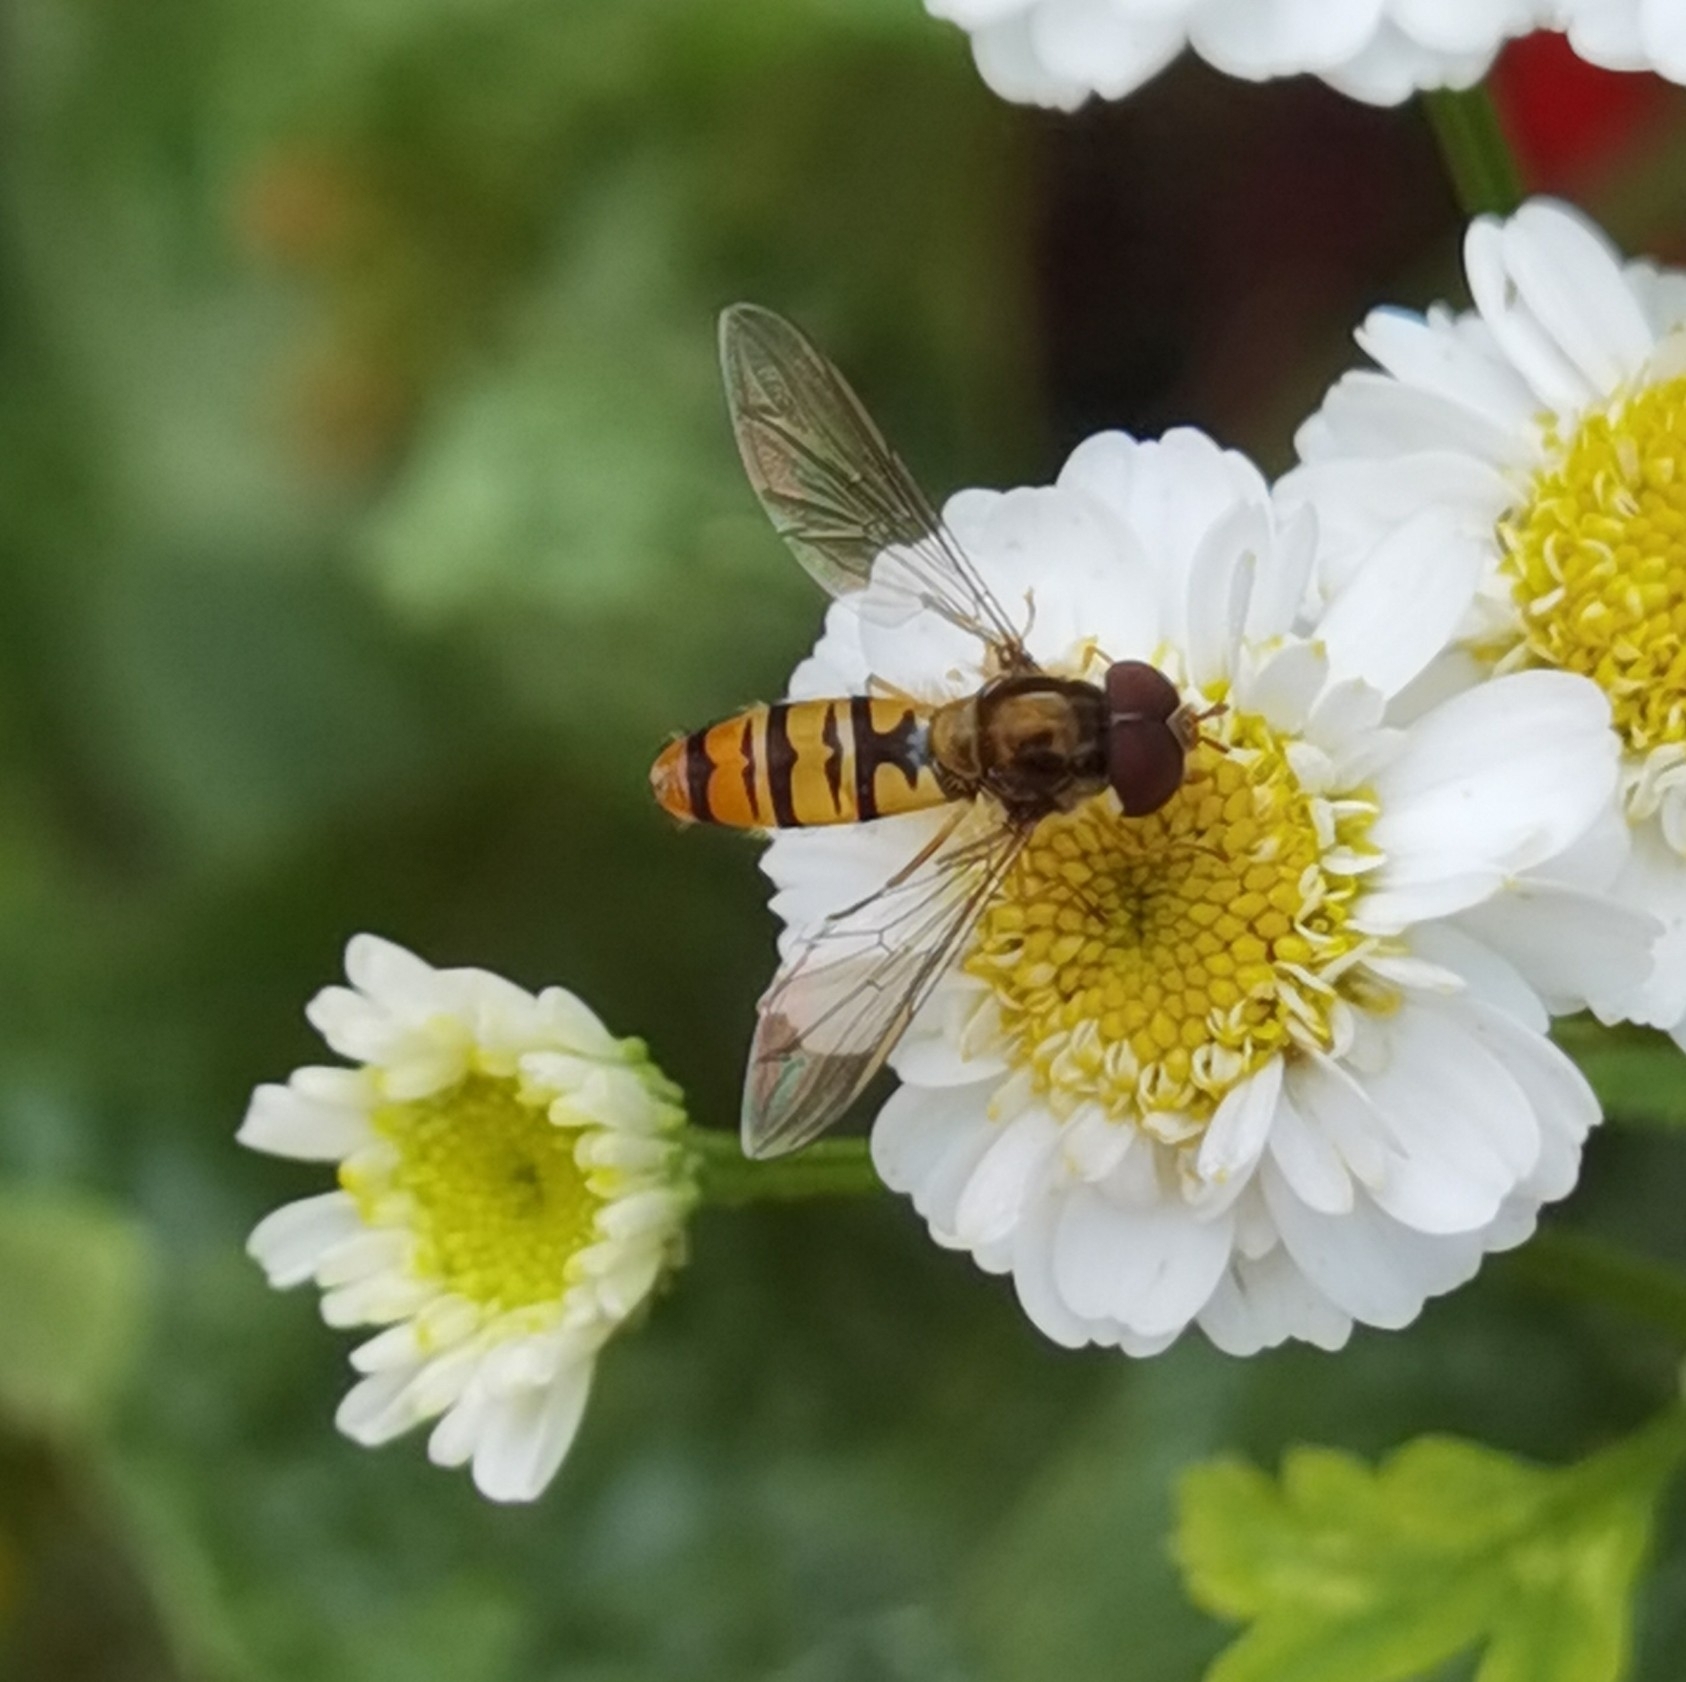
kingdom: Animalia
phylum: Arthropoda
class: Insecta
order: Diptera
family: Syrphidae
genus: Episyrphus
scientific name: Episyrphus balteatus
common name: Marmalade hoverfly
